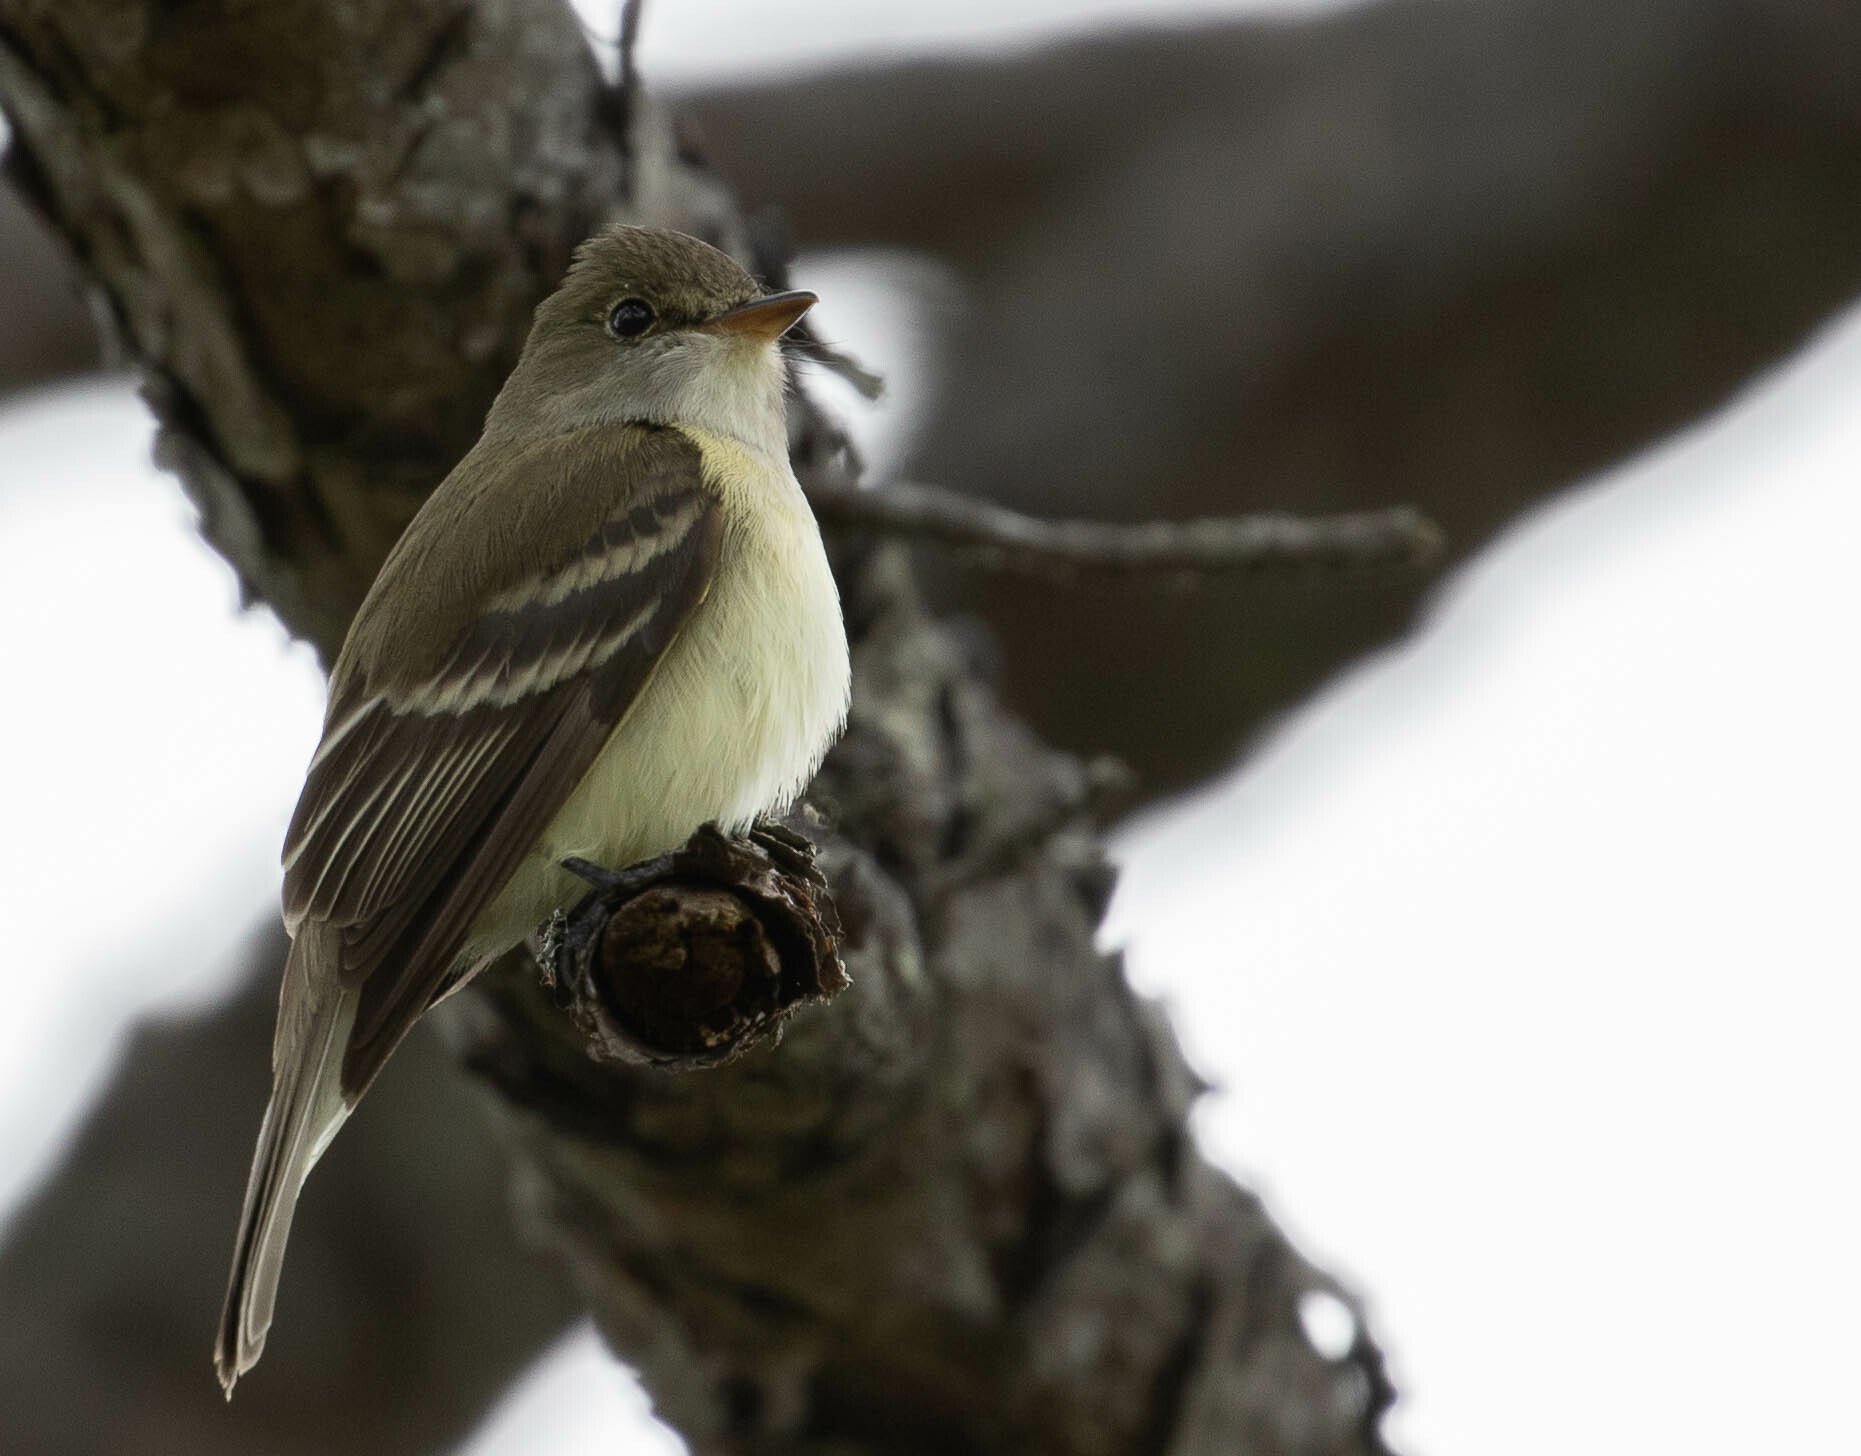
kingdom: Animalia
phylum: Chordata
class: Aves
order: Passeriformes
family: Tyrannidae
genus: Empidonax
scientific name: Empidonax alnorum
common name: Alder flycatcher
